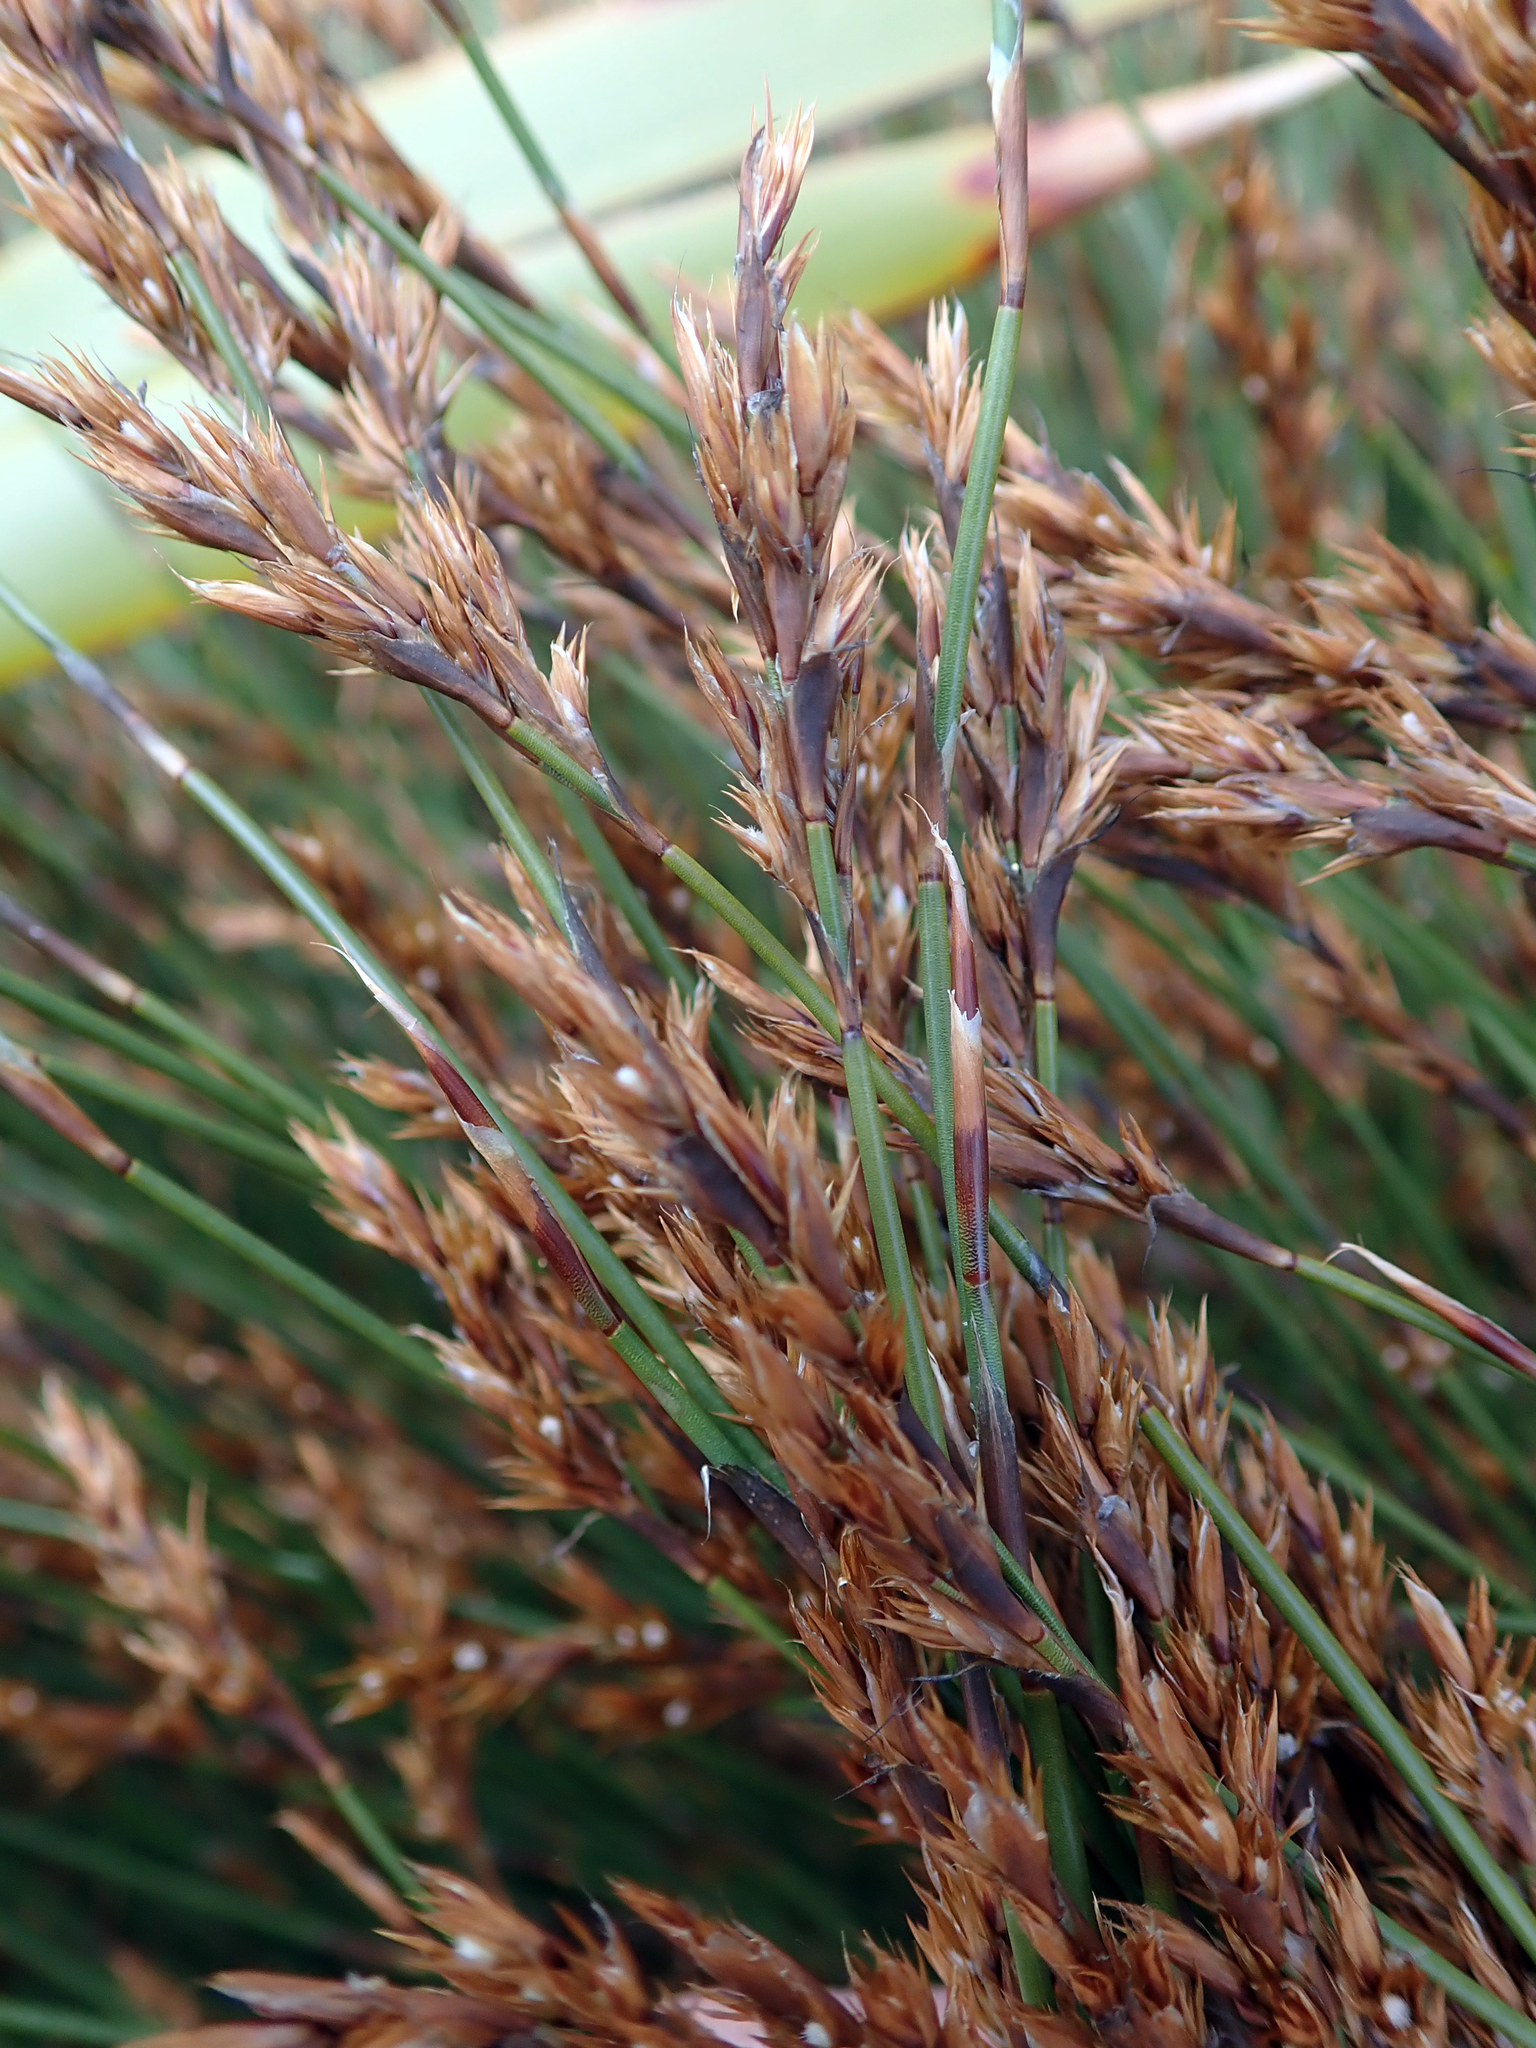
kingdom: Plantae
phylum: Tracheophyta
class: Liliopsida
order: Poales
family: Restionaceae
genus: Sporadanthus
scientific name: Sporadanthus traversii
